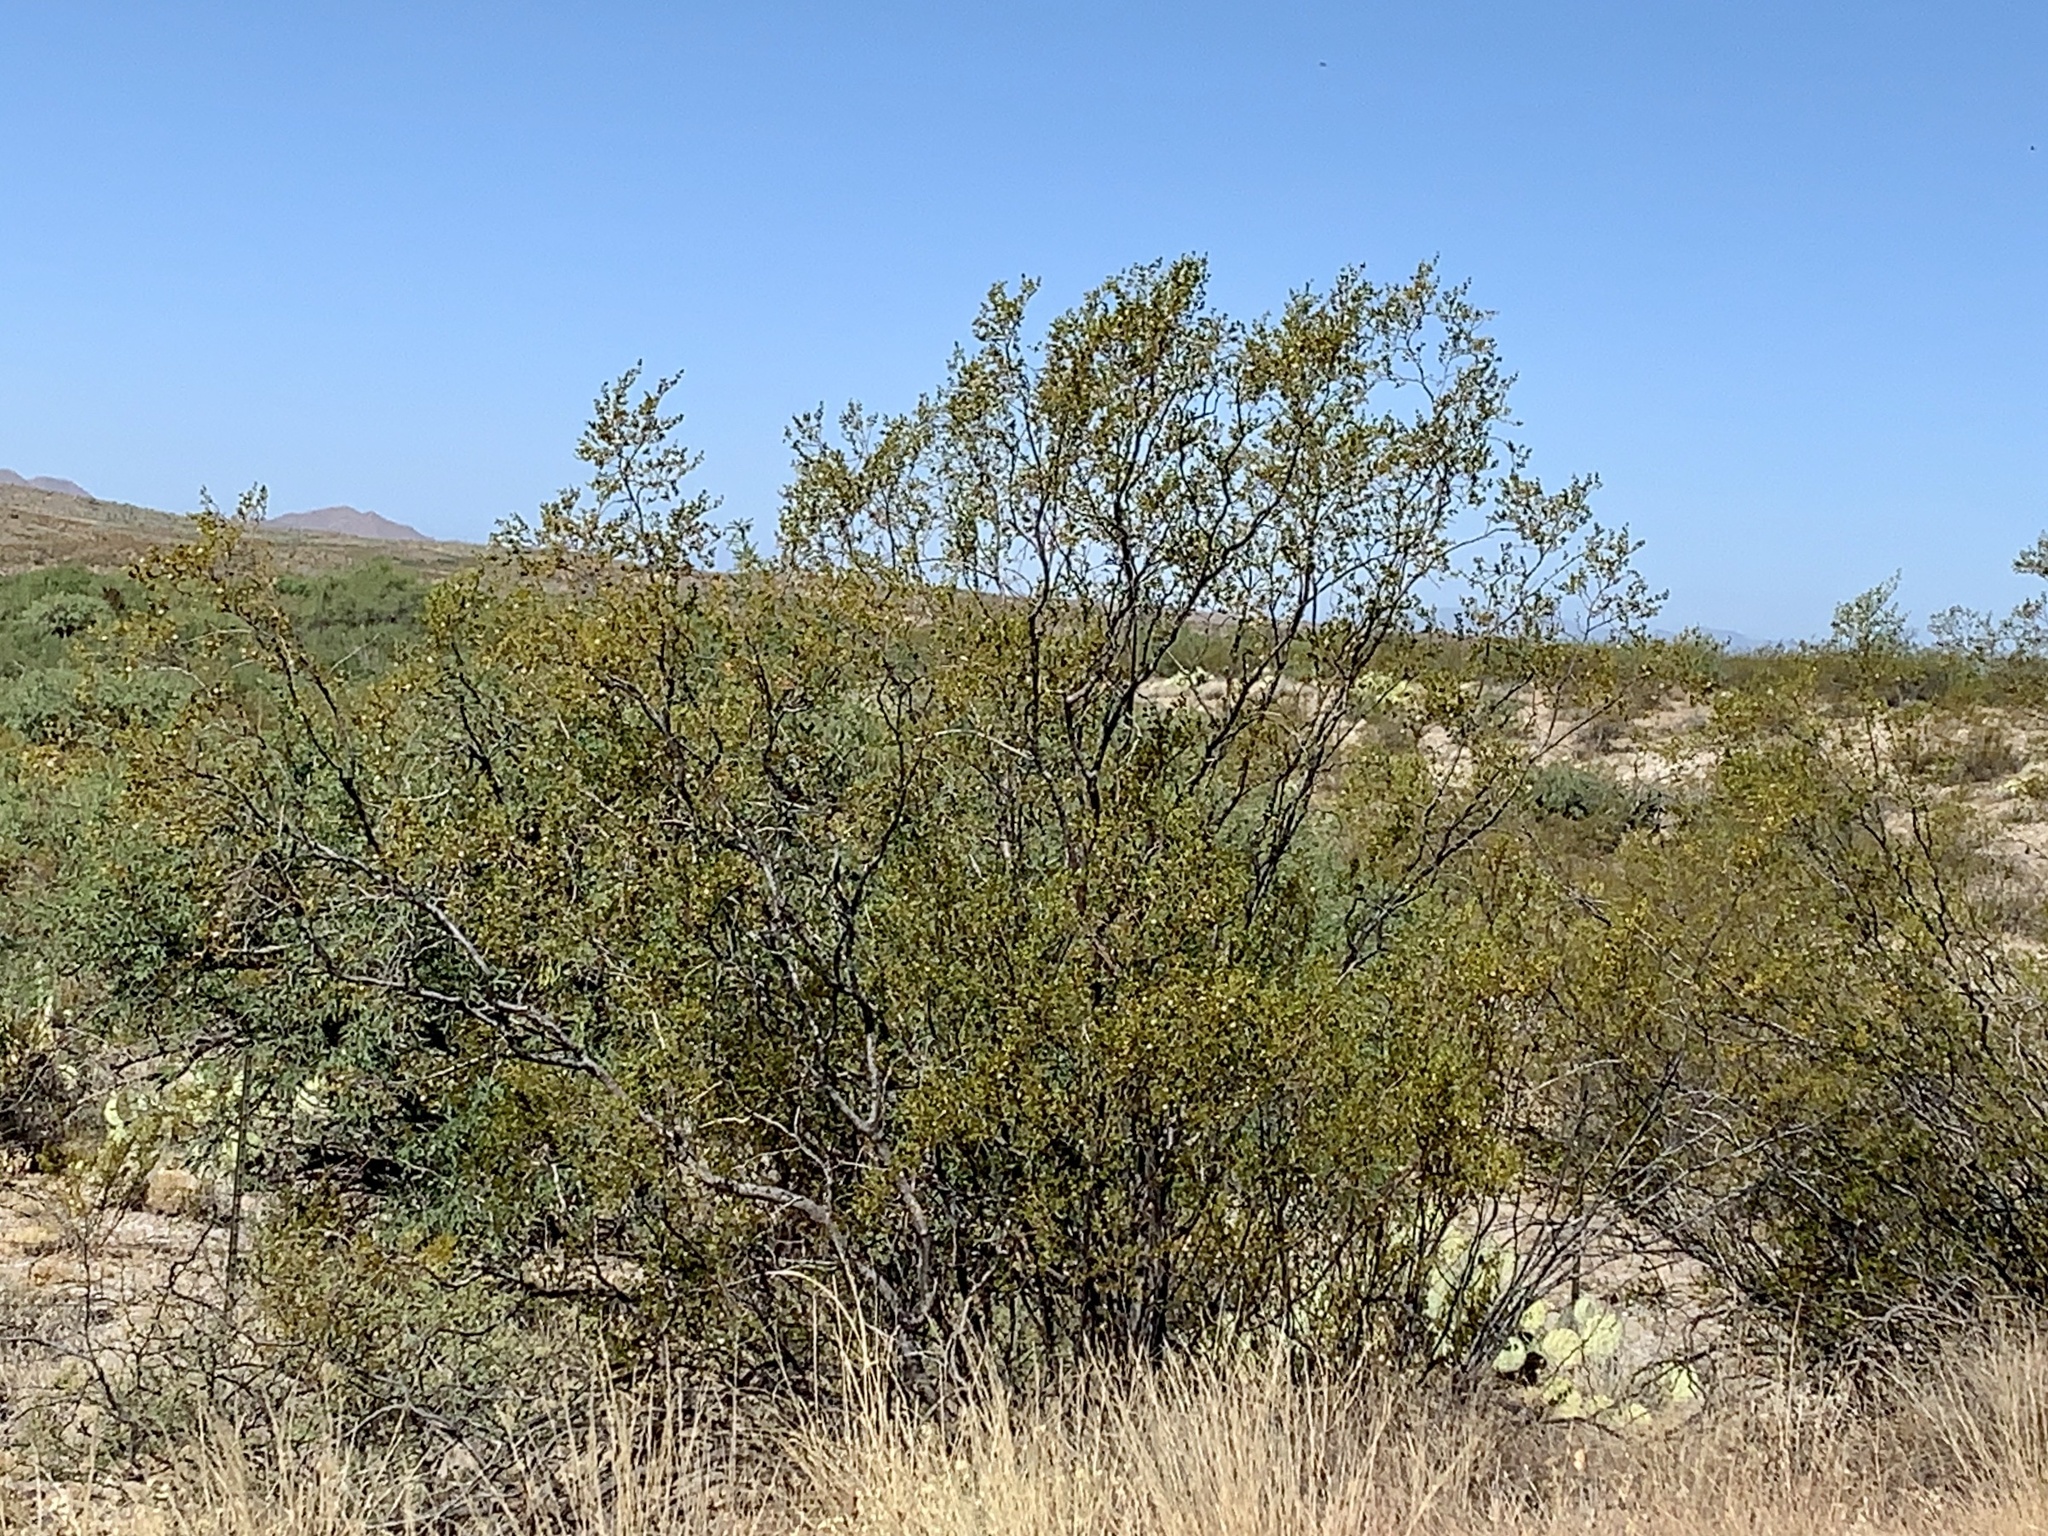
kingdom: Plantae
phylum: Tracheophyta
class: Magnoliopsida
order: Zygophyllales
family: Zygophyllaceae
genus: Larrea
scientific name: Larrea tridentata
